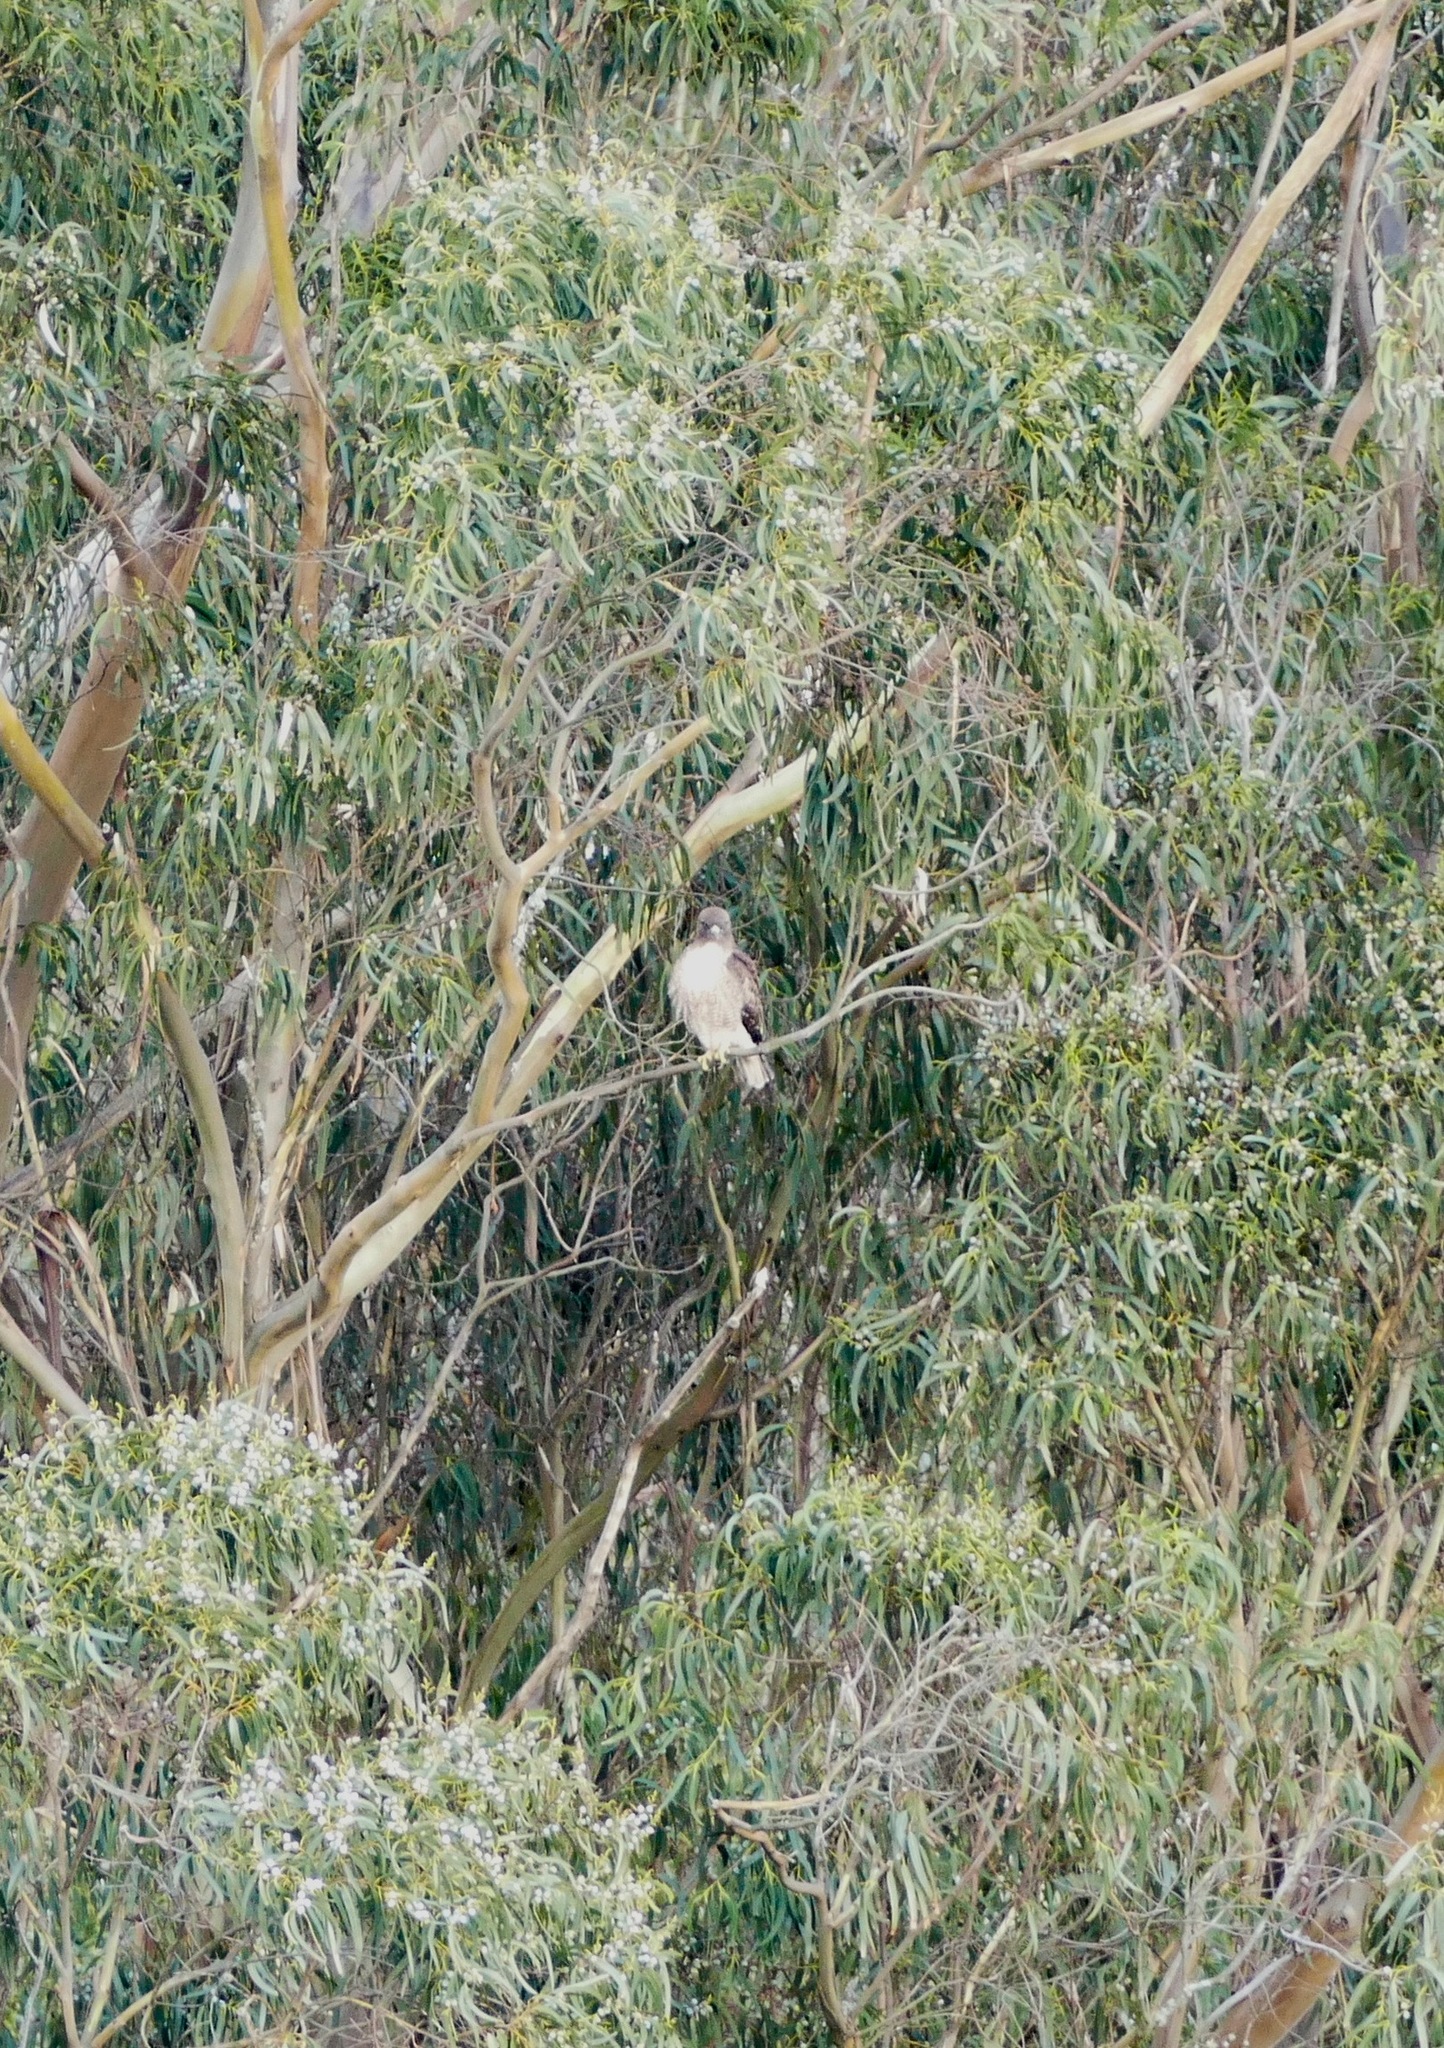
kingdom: Animalia
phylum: Chordata
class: Aves
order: Accipitriformes
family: Accipitridae
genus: Buteo
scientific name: Buteo jamaicensis
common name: Red-tailed hawk
